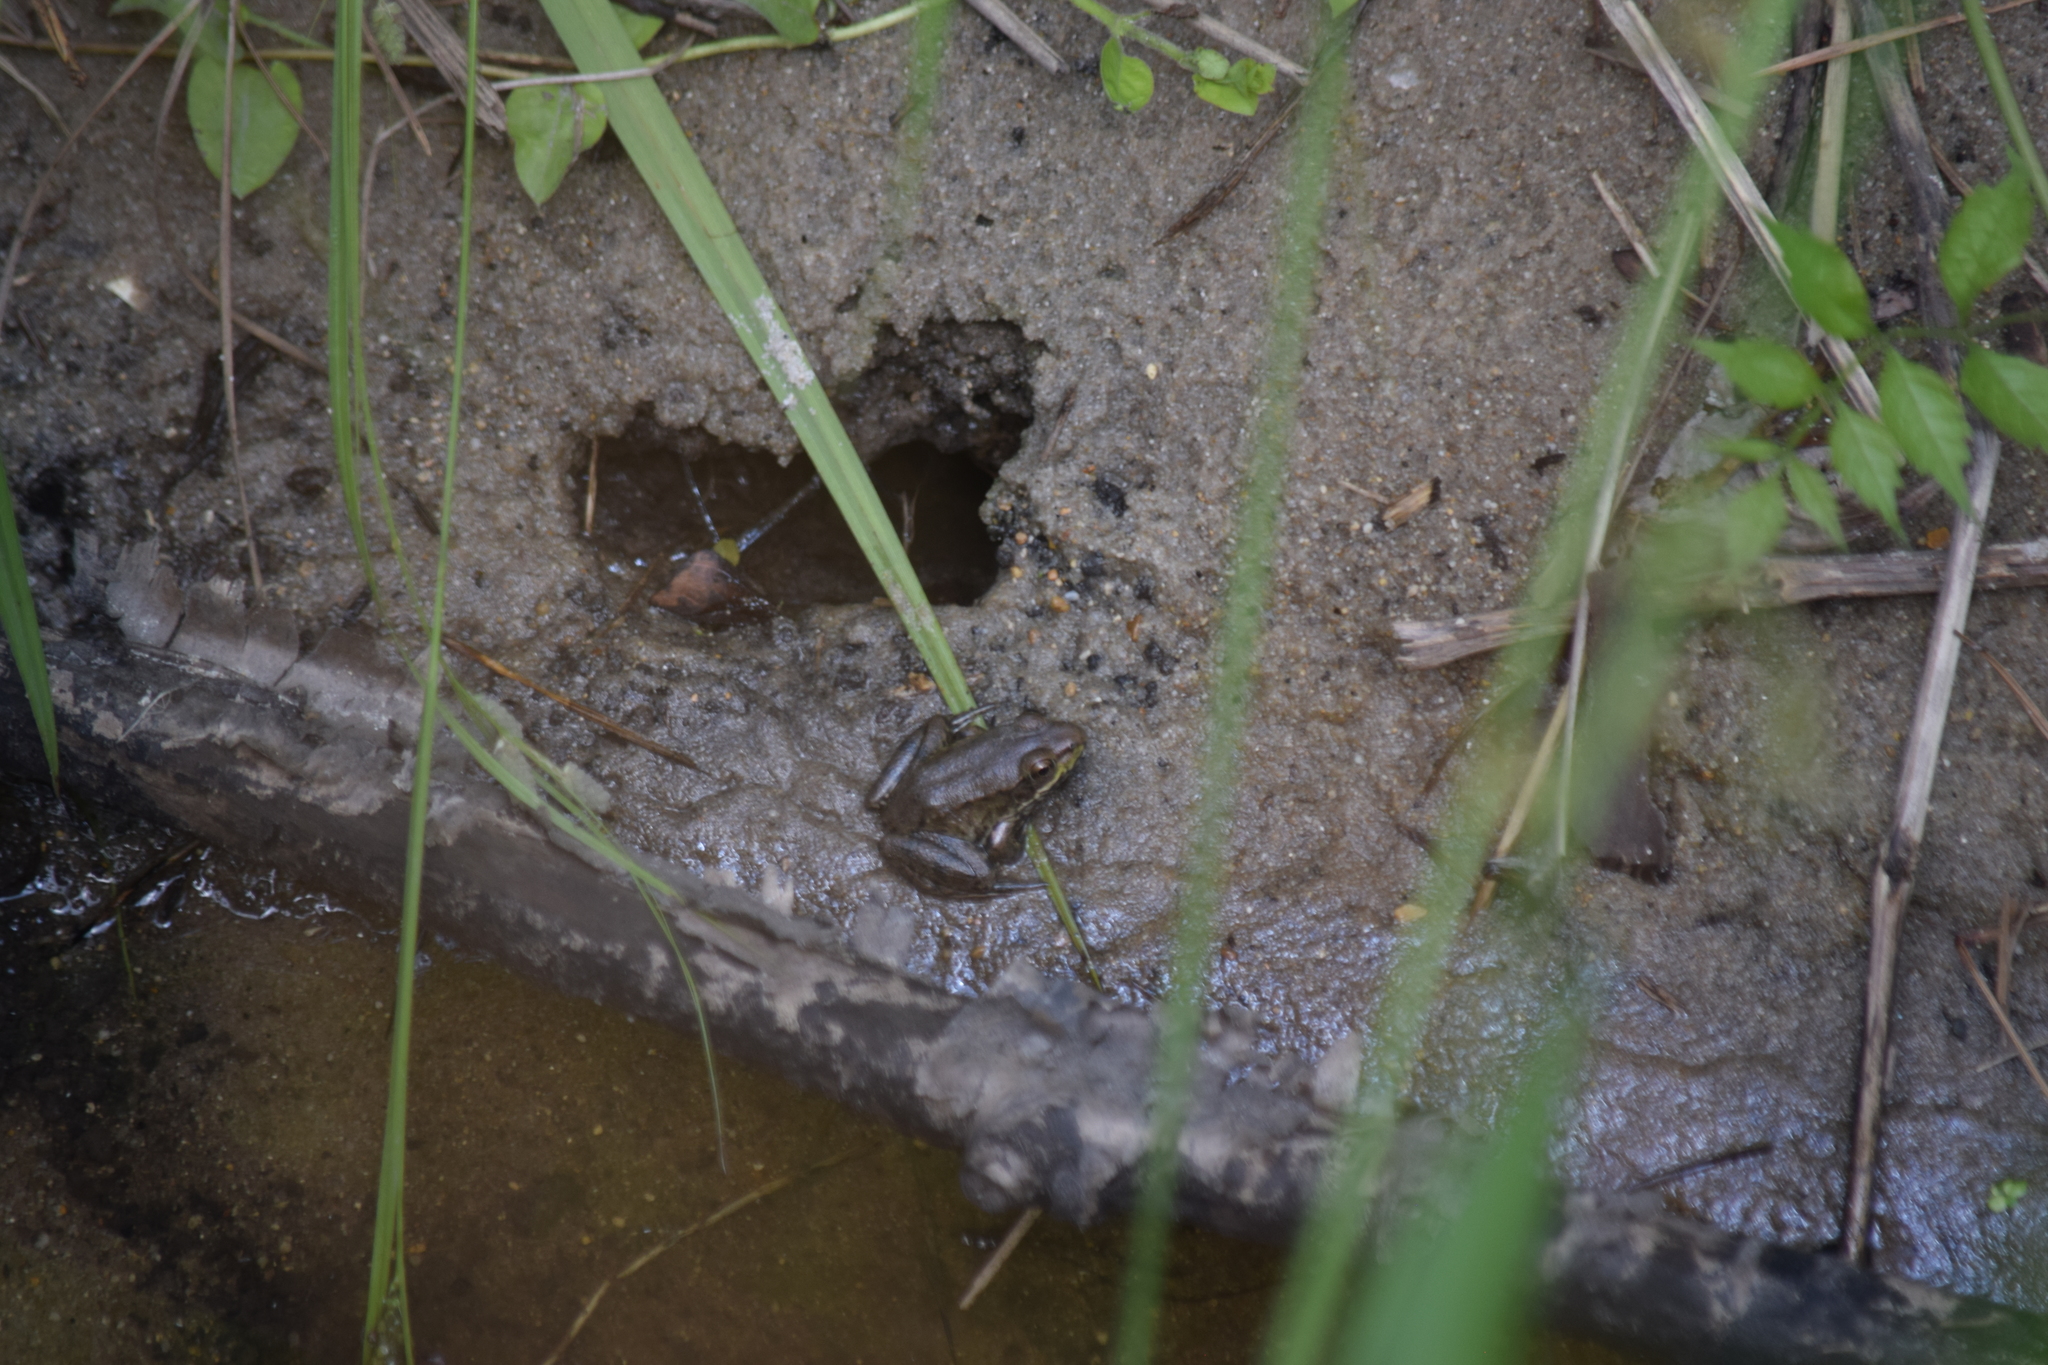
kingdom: Animalia
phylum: Chordata
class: Amphibia
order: Anura
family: Ranidae
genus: Lithobates
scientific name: Lithobates clamitans
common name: Green frog
